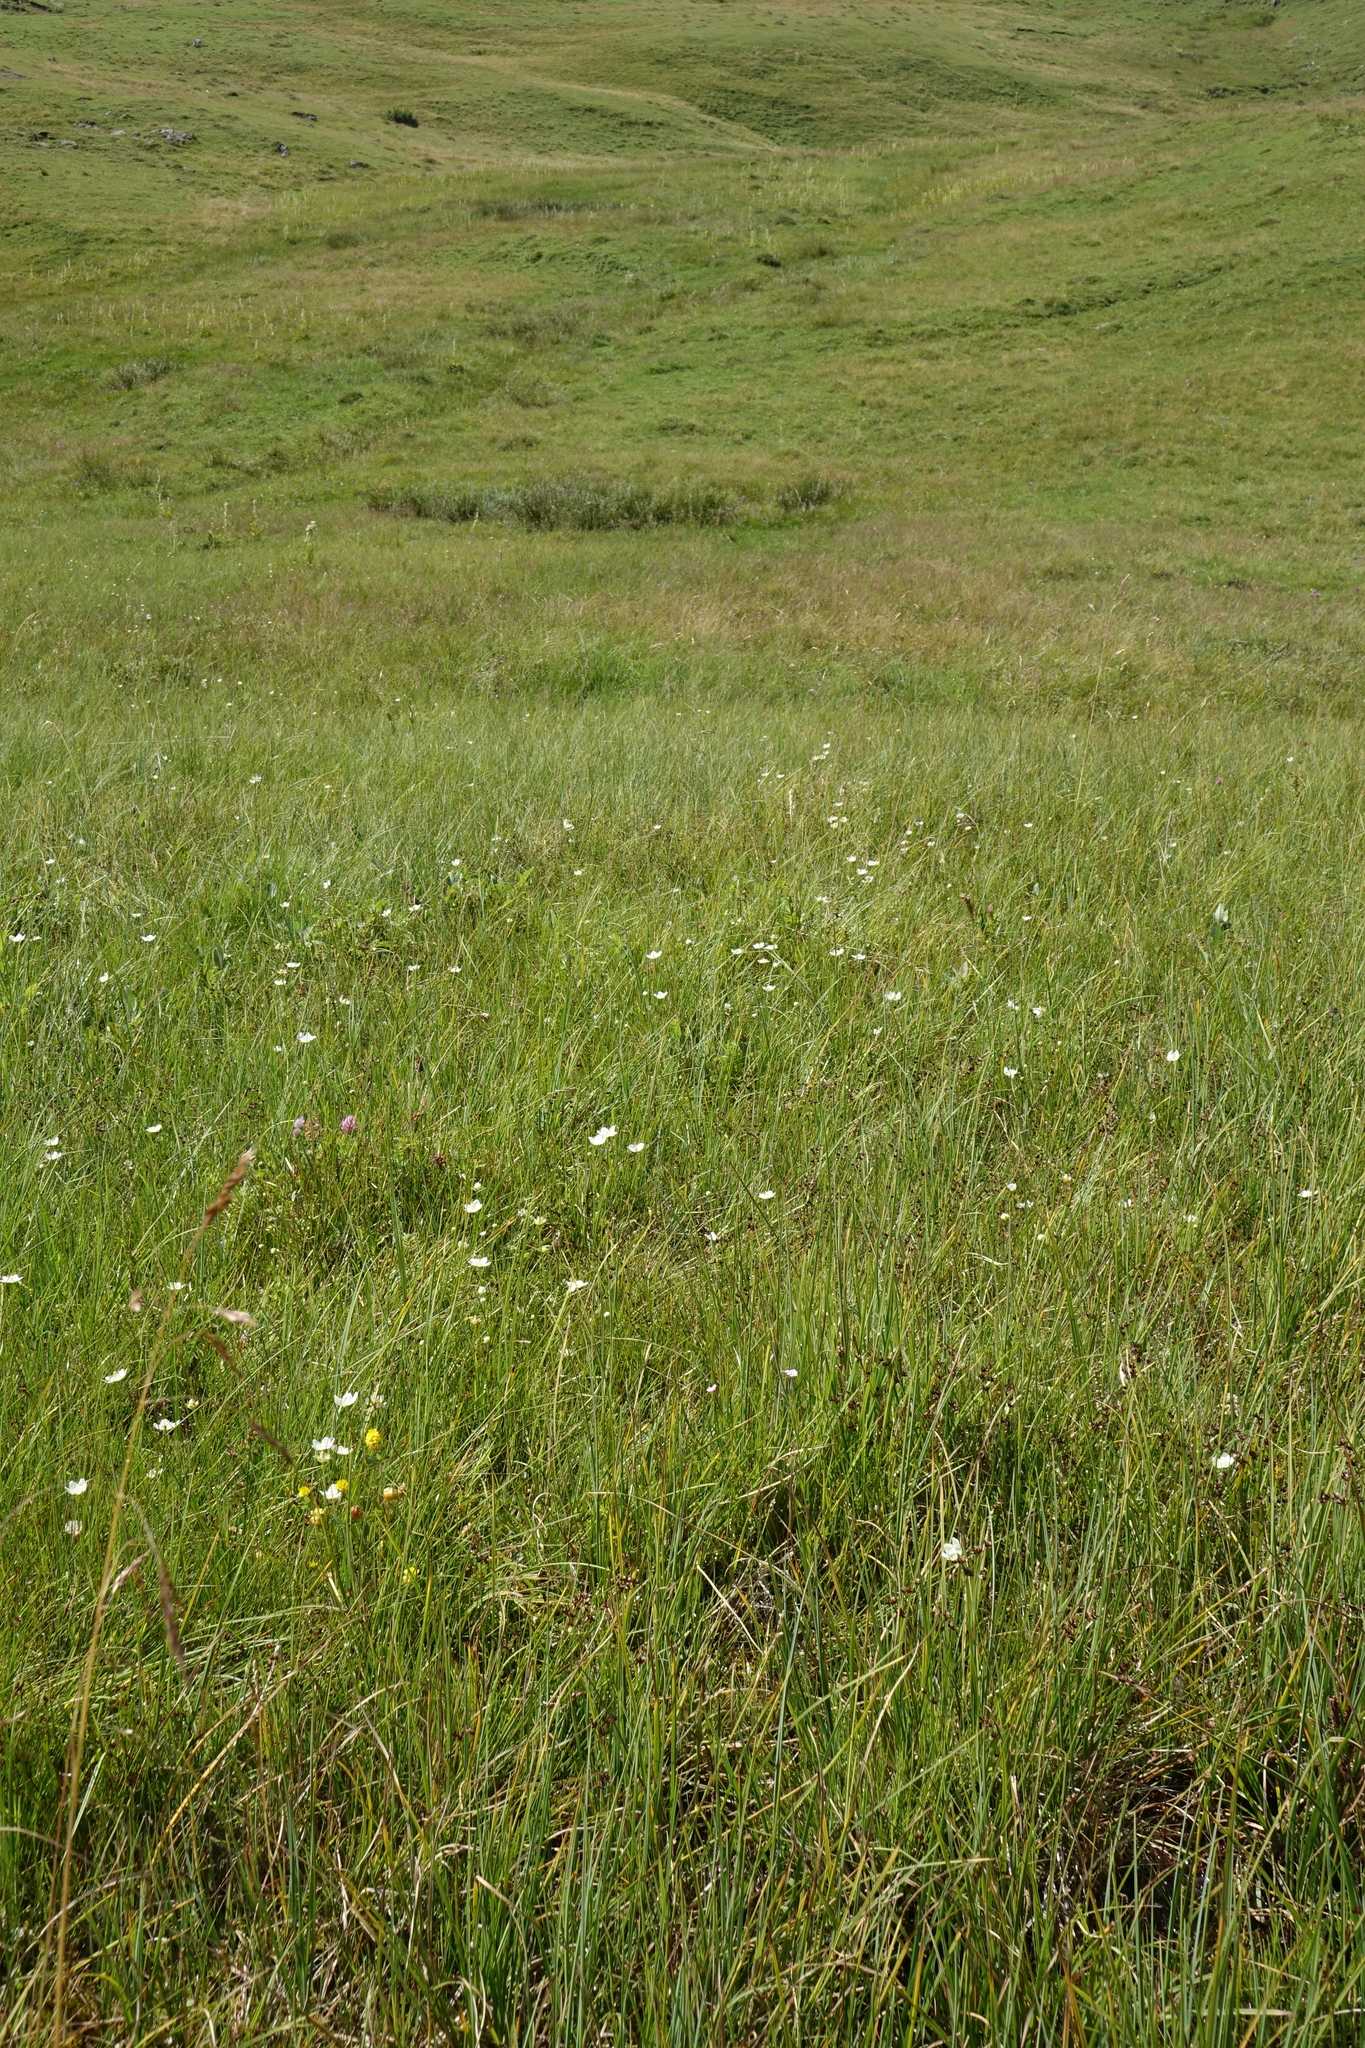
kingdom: Plantae
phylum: Tracheophyta
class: Magnoliopsida
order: Celastrales
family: Parnassiaceae
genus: Parnassia
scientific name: Parnassia palustris
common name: Grass-of-parnassus
